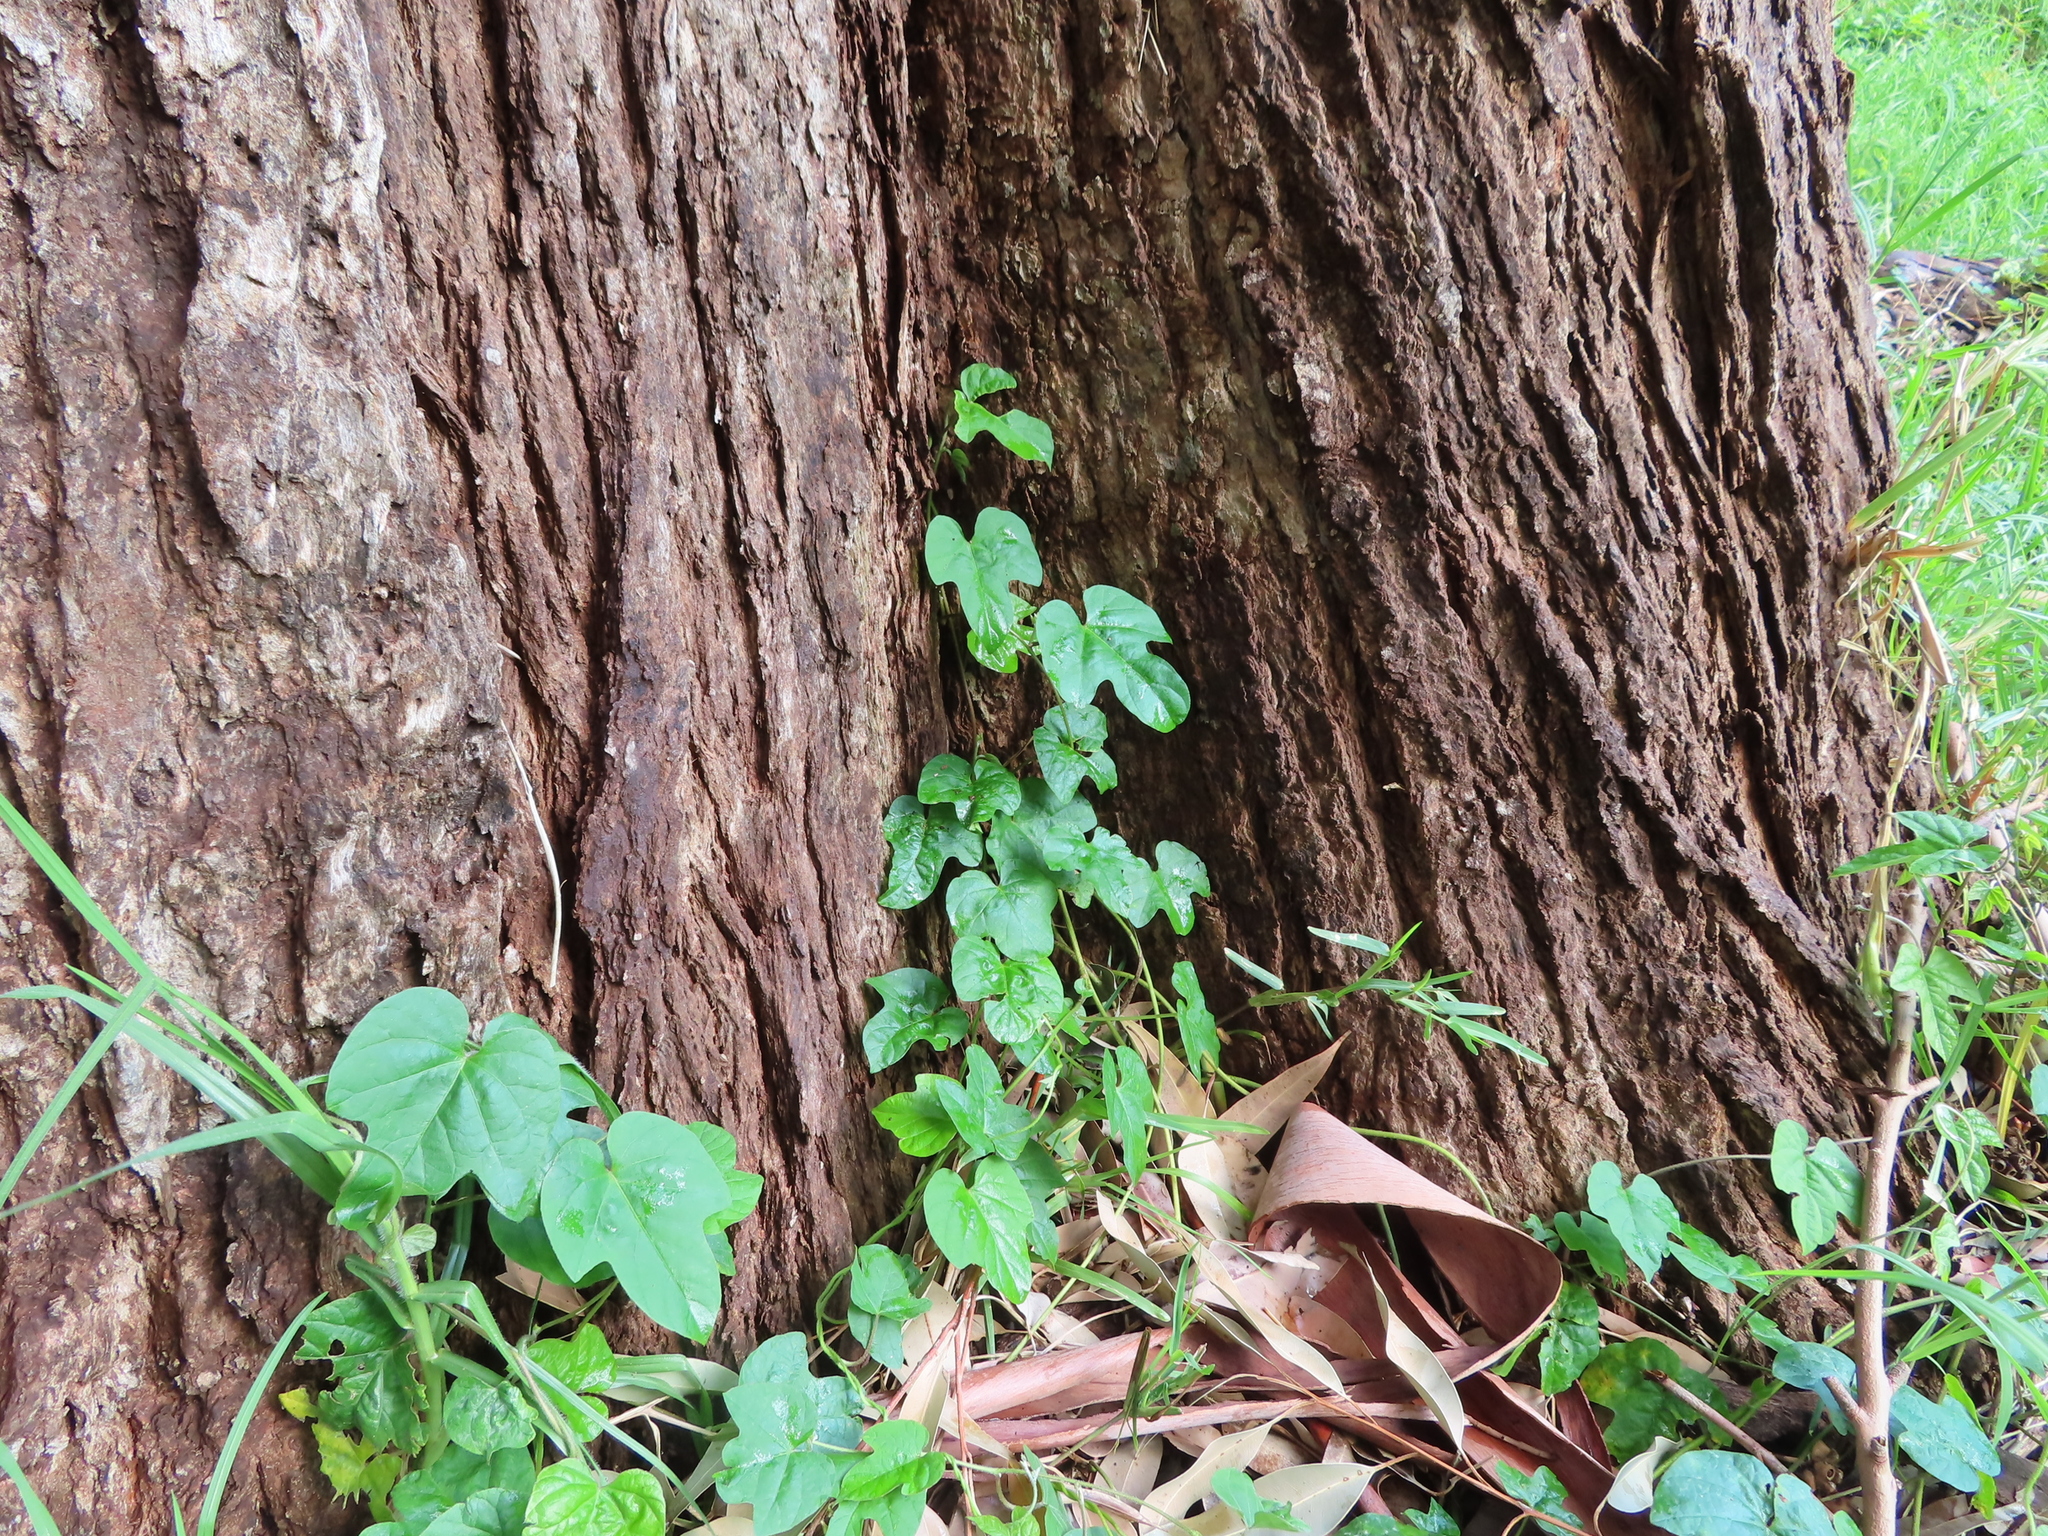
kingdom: Plantae
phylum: Tracheophyta
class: Magnoliopsida
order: Solanales
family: Convolvulaceae
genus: Ipomoea
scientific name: Ipomoea indica
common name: Blue dawnflower
